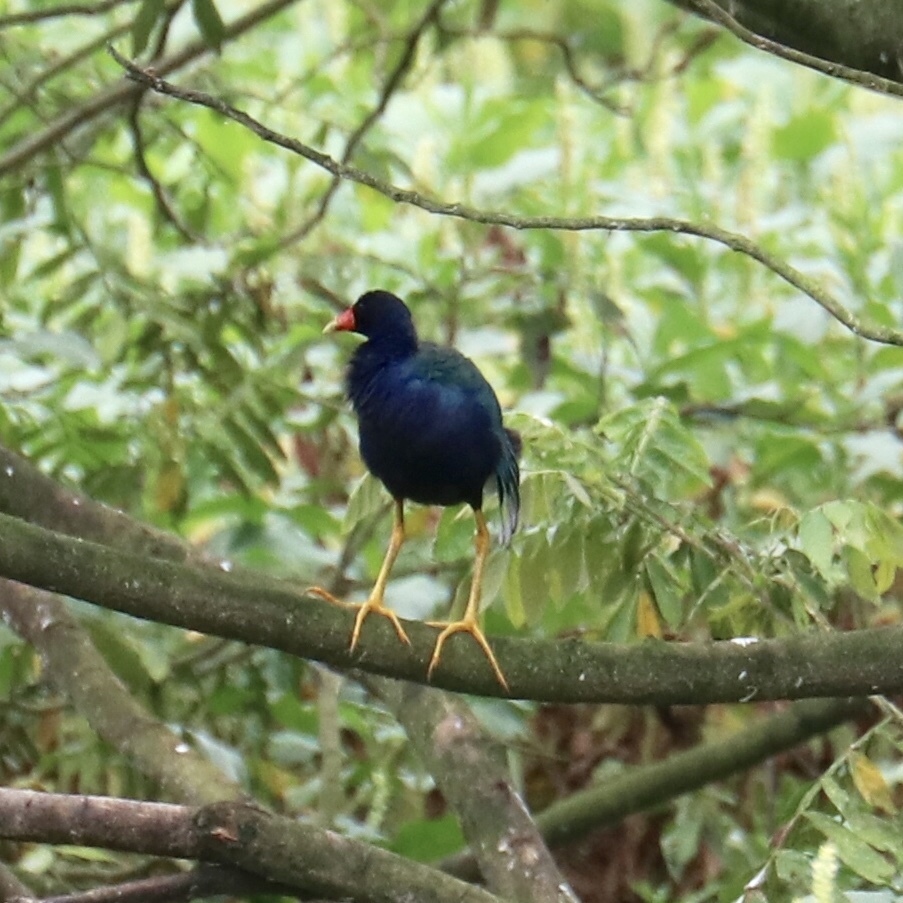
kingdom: Animalia
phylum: Chordata
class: Aves
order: Gruiformes
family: Rallidae
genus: Porphyrio
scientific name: Porphyrio martinica
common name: Purple gallinule
